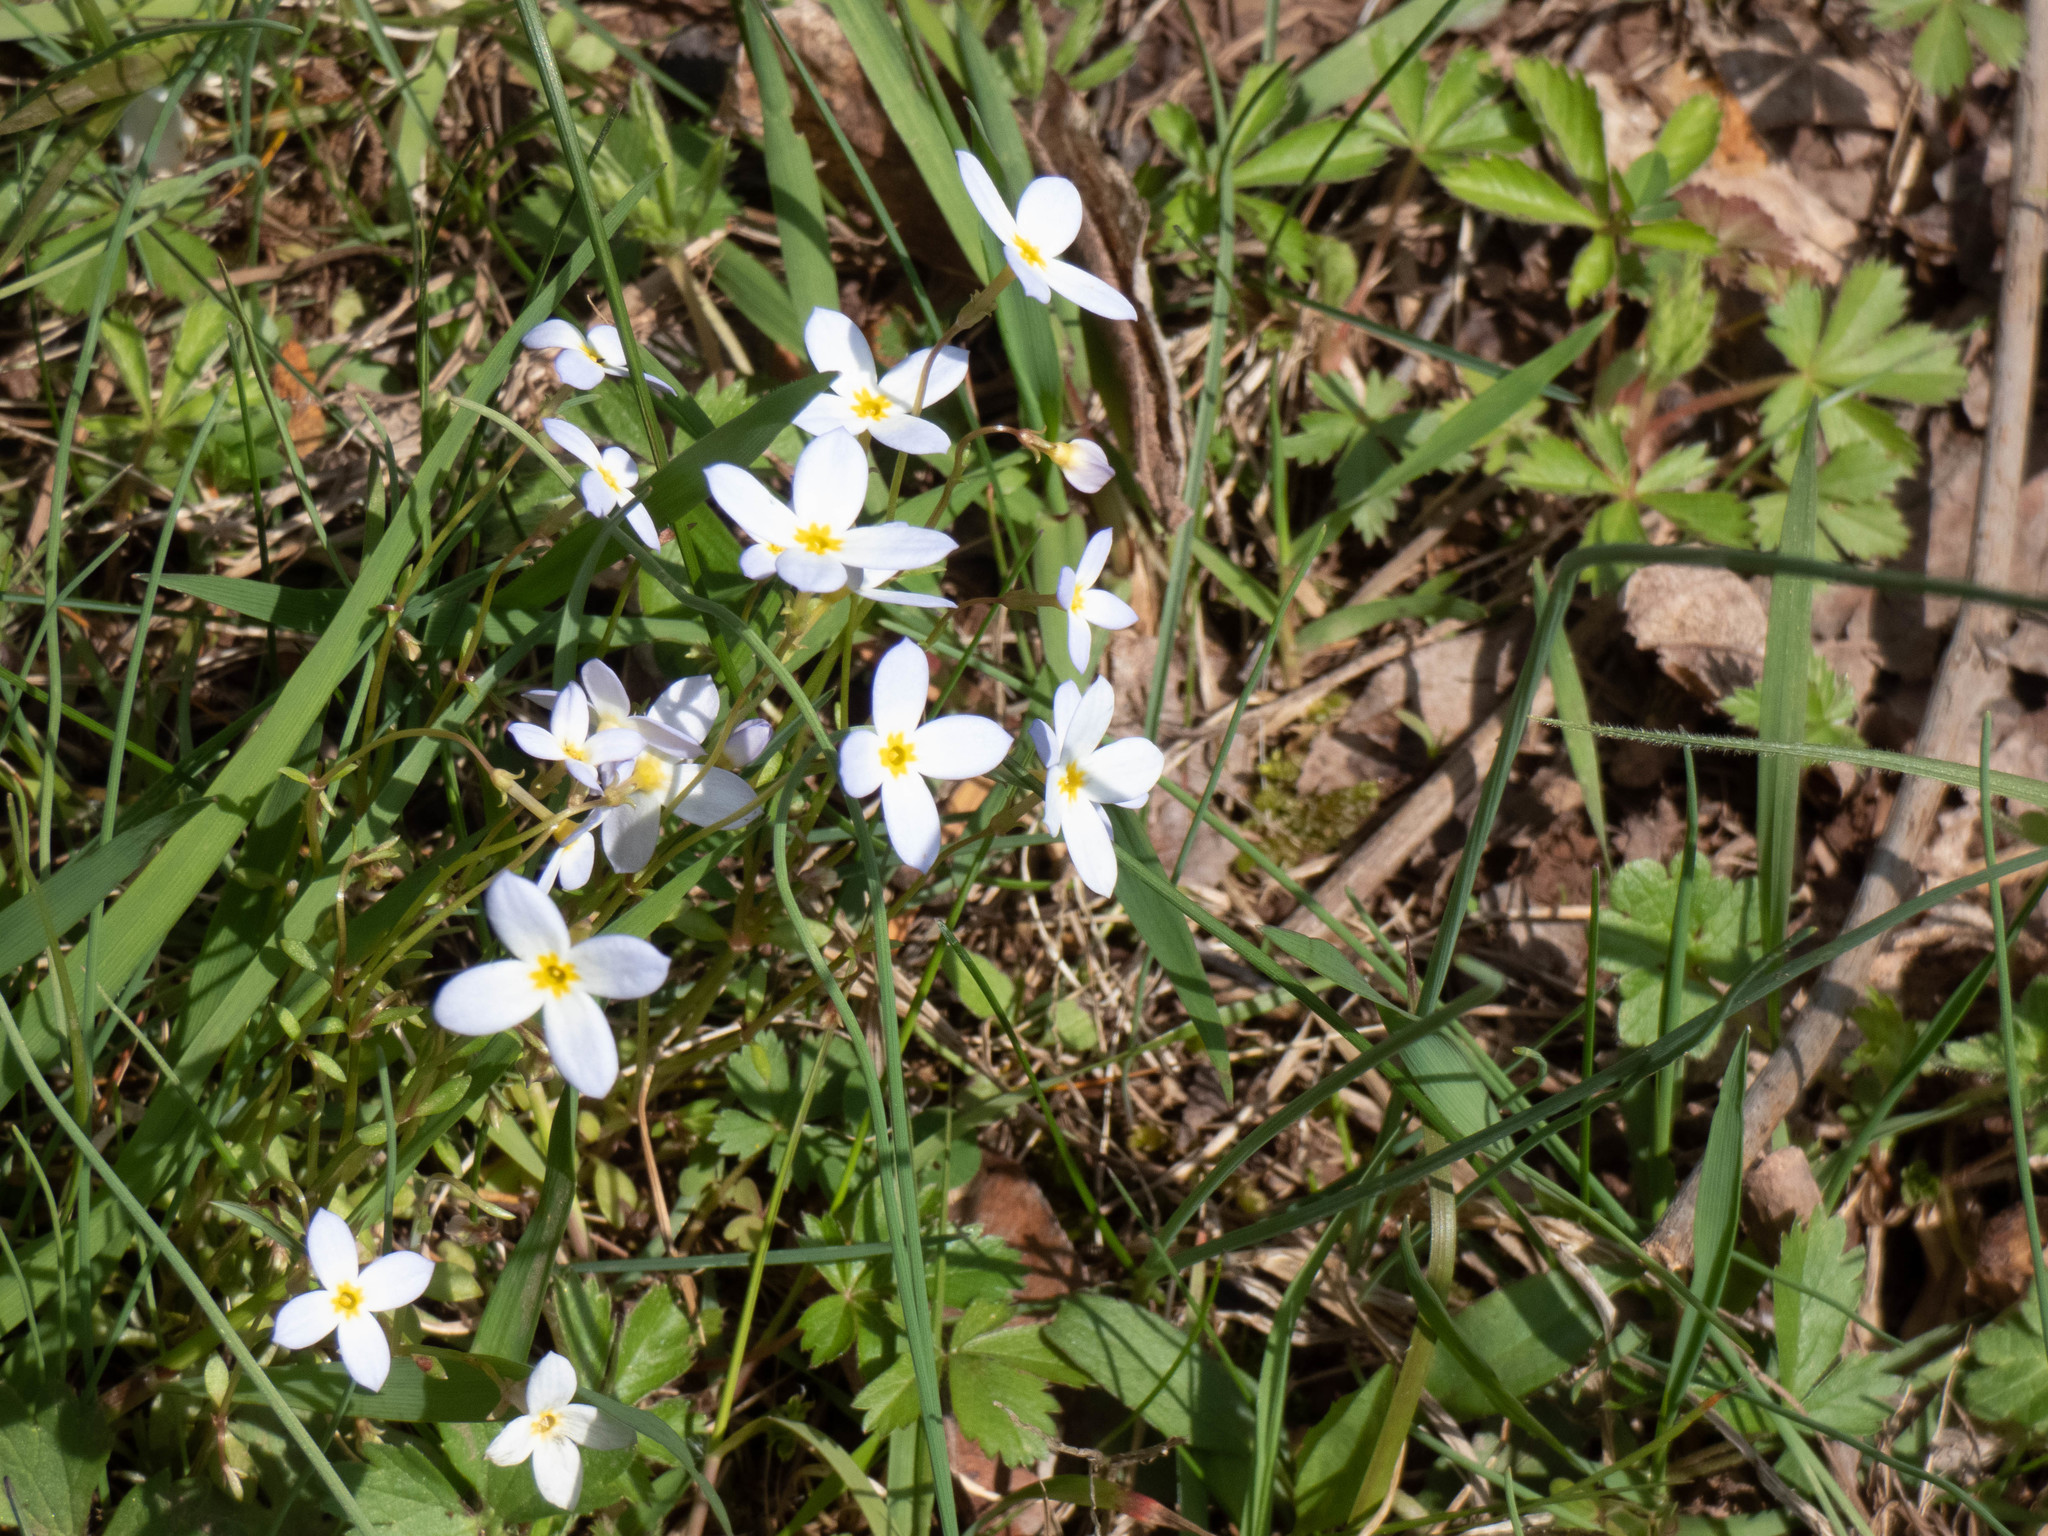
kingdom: Plantae
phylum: Tracheophyta
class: Magnoliopsida
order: Gentianales
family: Rubiaceae
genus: Houstonia
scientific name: Houstonia caerulea
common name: Bluets
